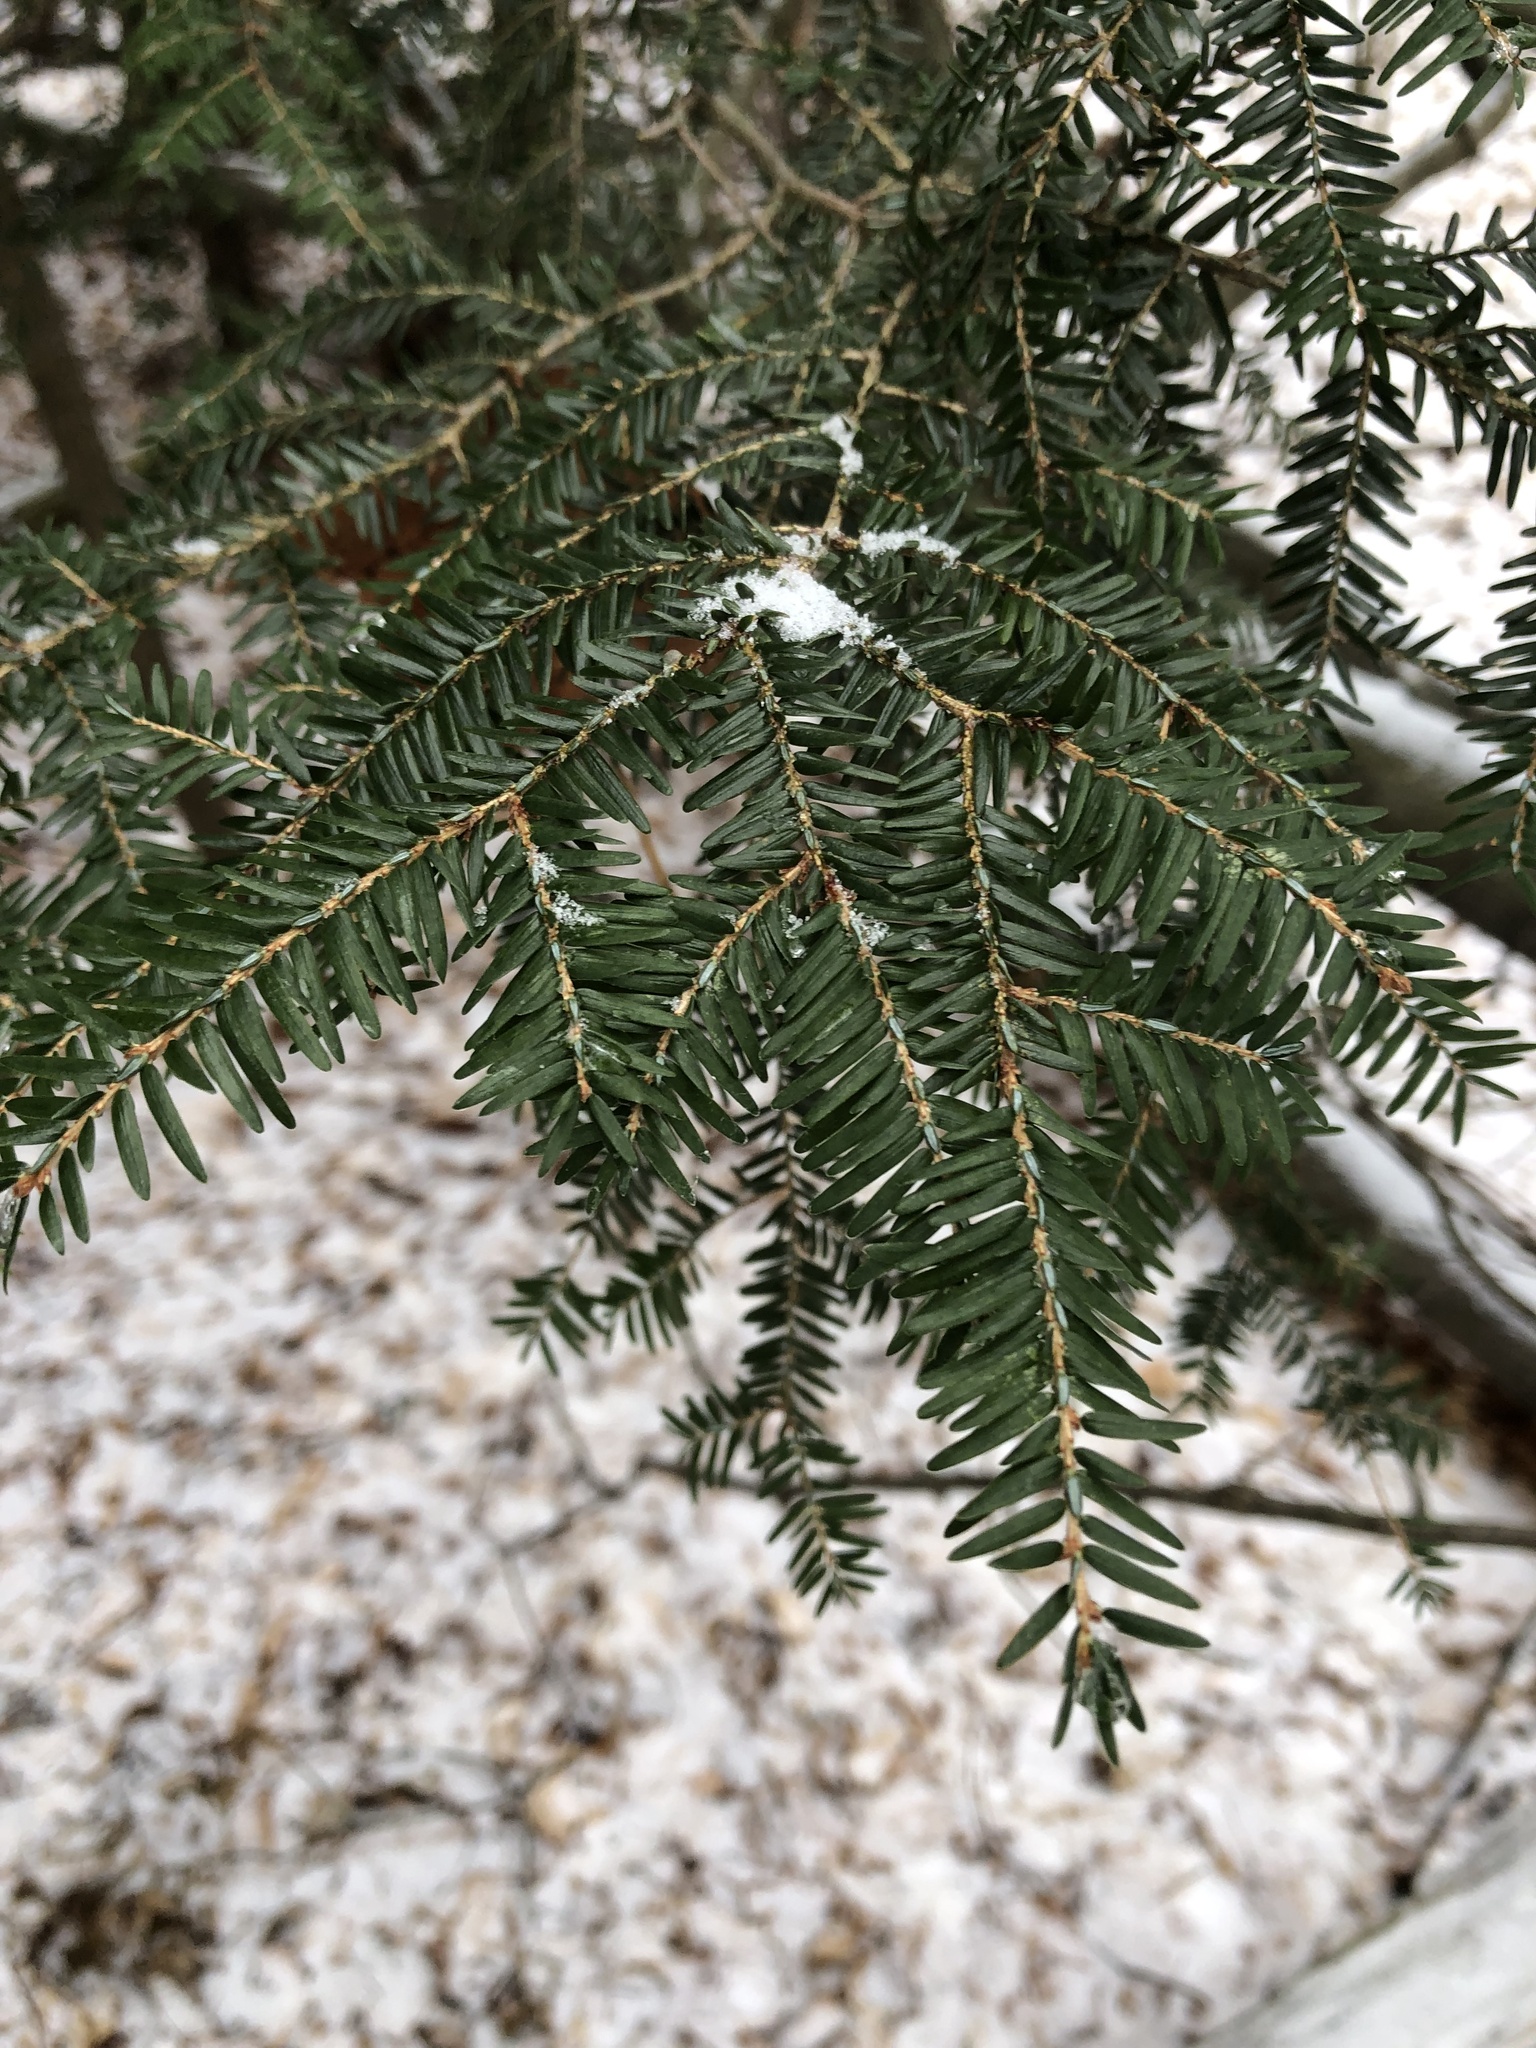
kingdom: Plantae
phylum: Tracheophyta
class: Pinopsida
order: Pinales
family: Pinaceae
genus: Tsuga
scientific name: Tsuga canadensis
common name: Eastern hemlock
